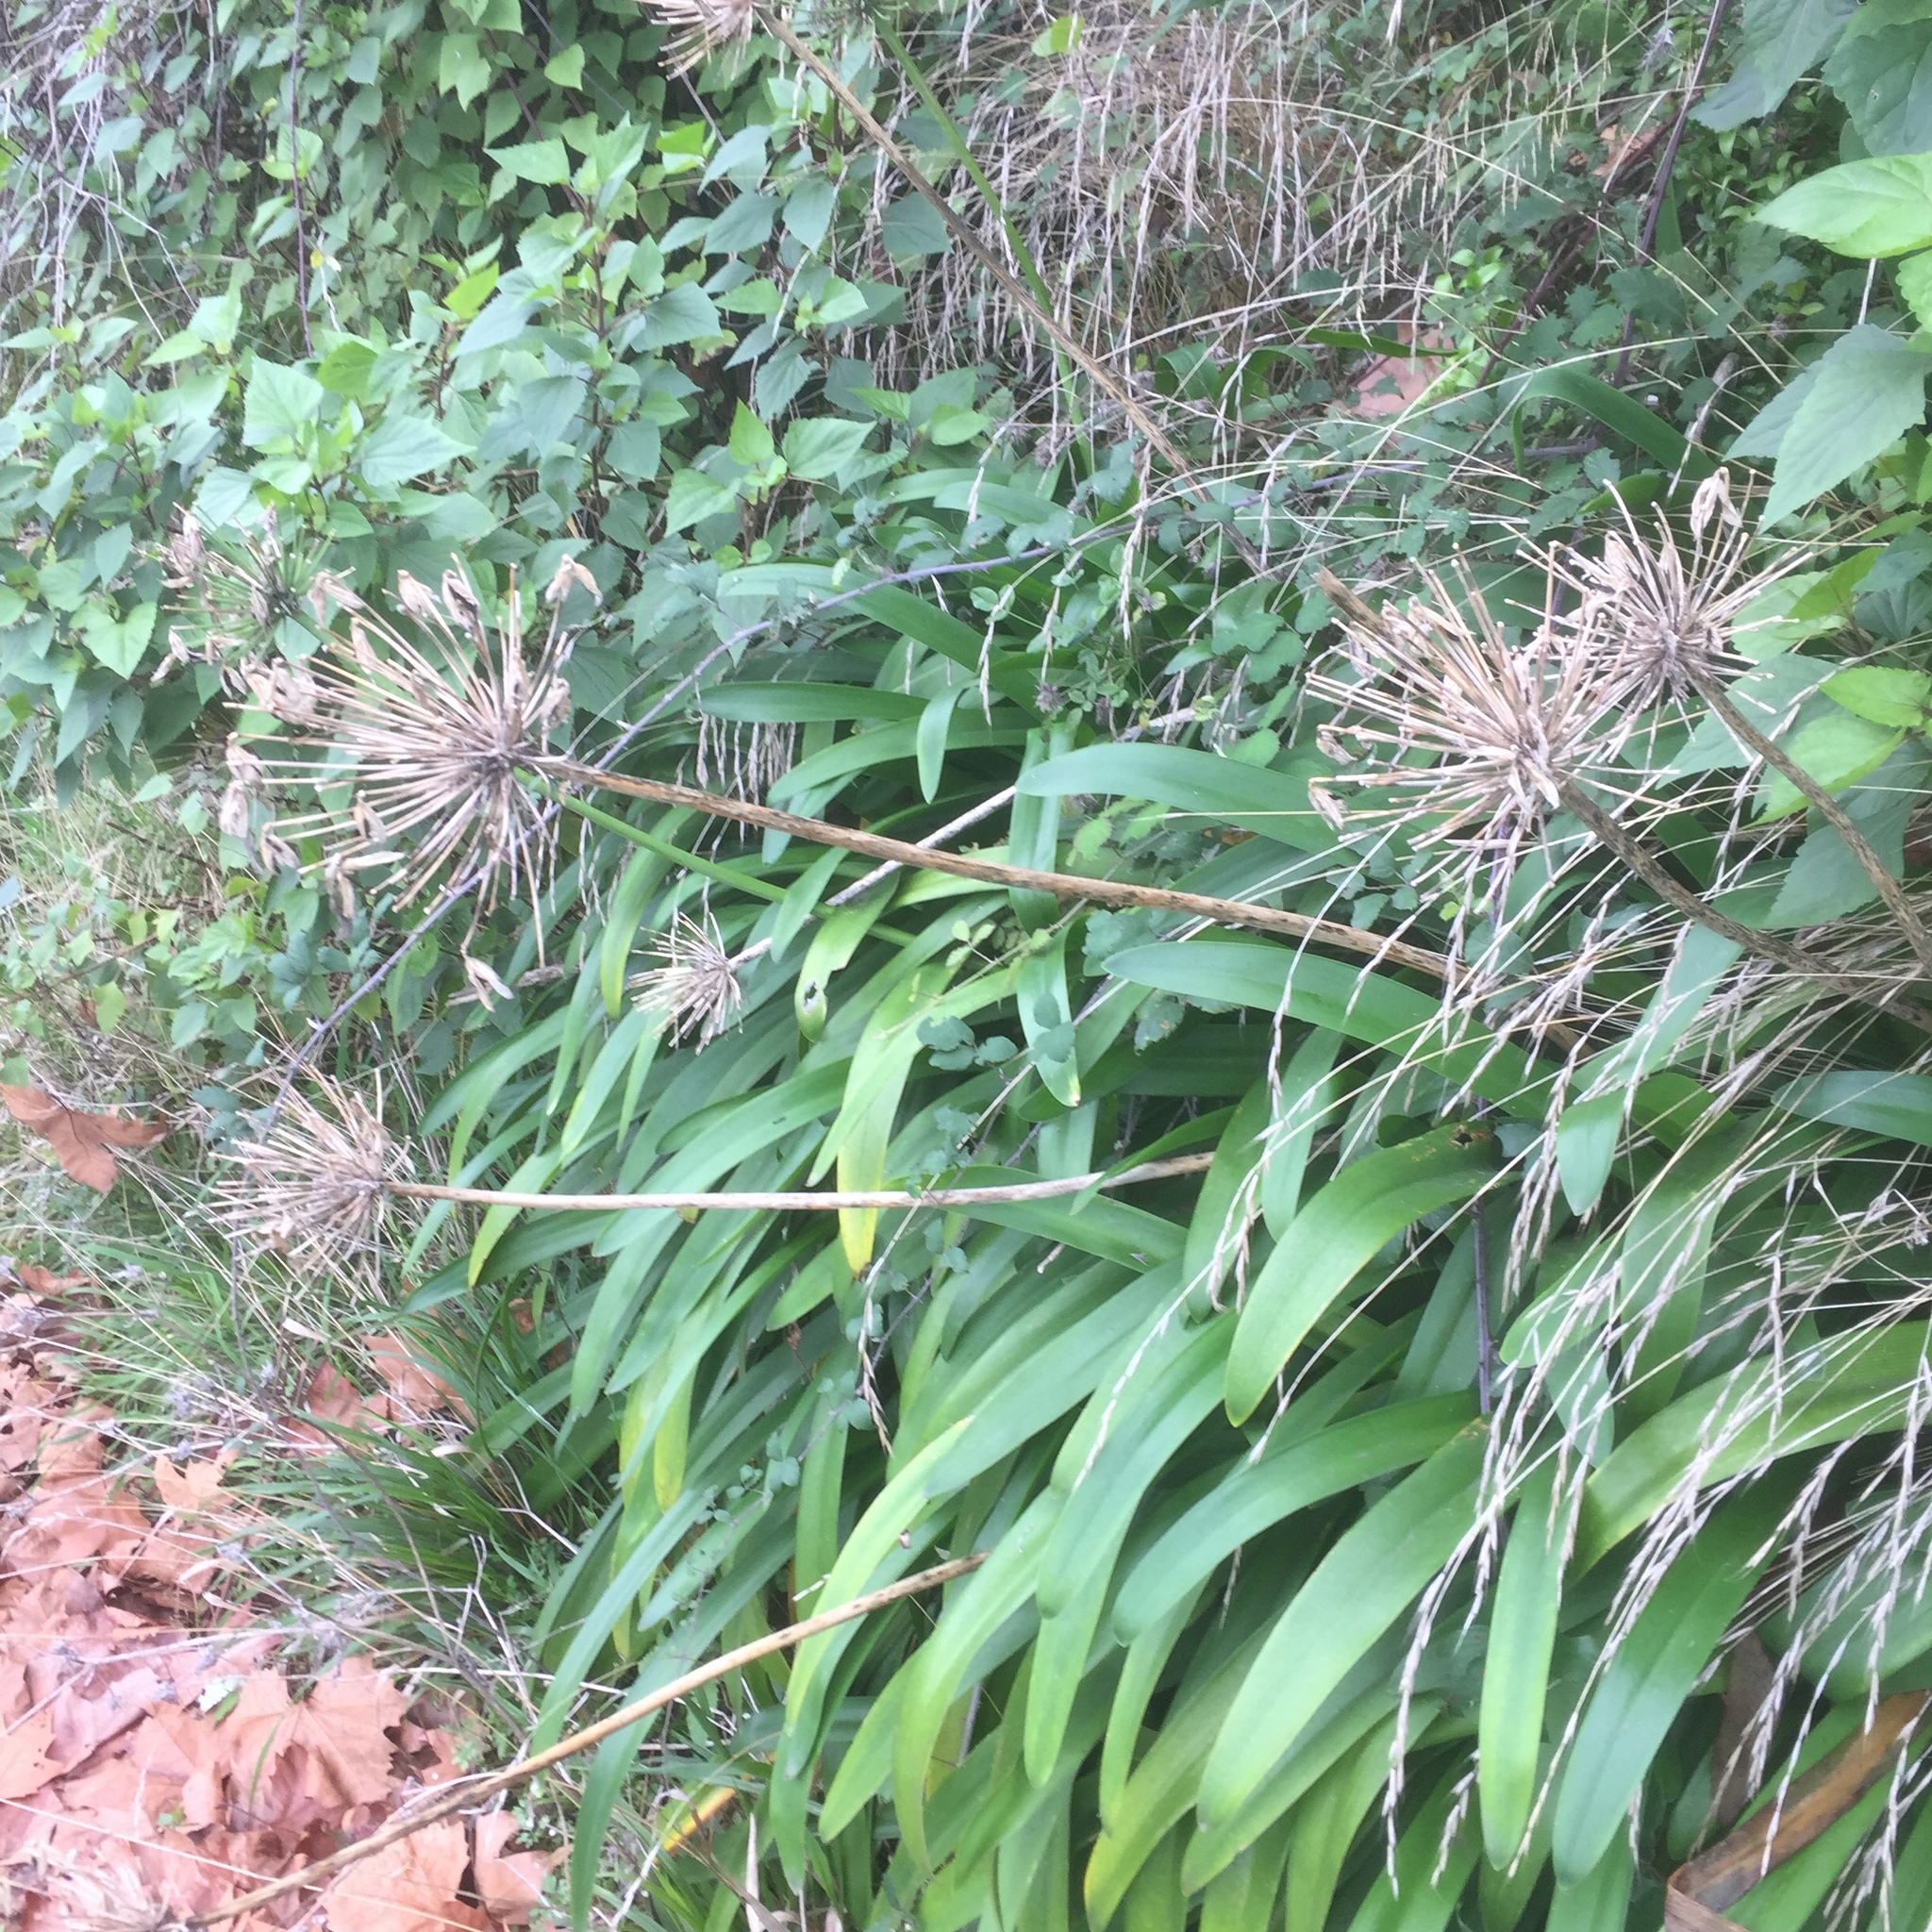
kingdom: Plantae
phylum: Tracheophyta
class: Liliopsida
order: Asparagales
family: Amaryllidaceae
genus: Agapanthus
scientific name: Agapanthus praecox
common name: African-lily
